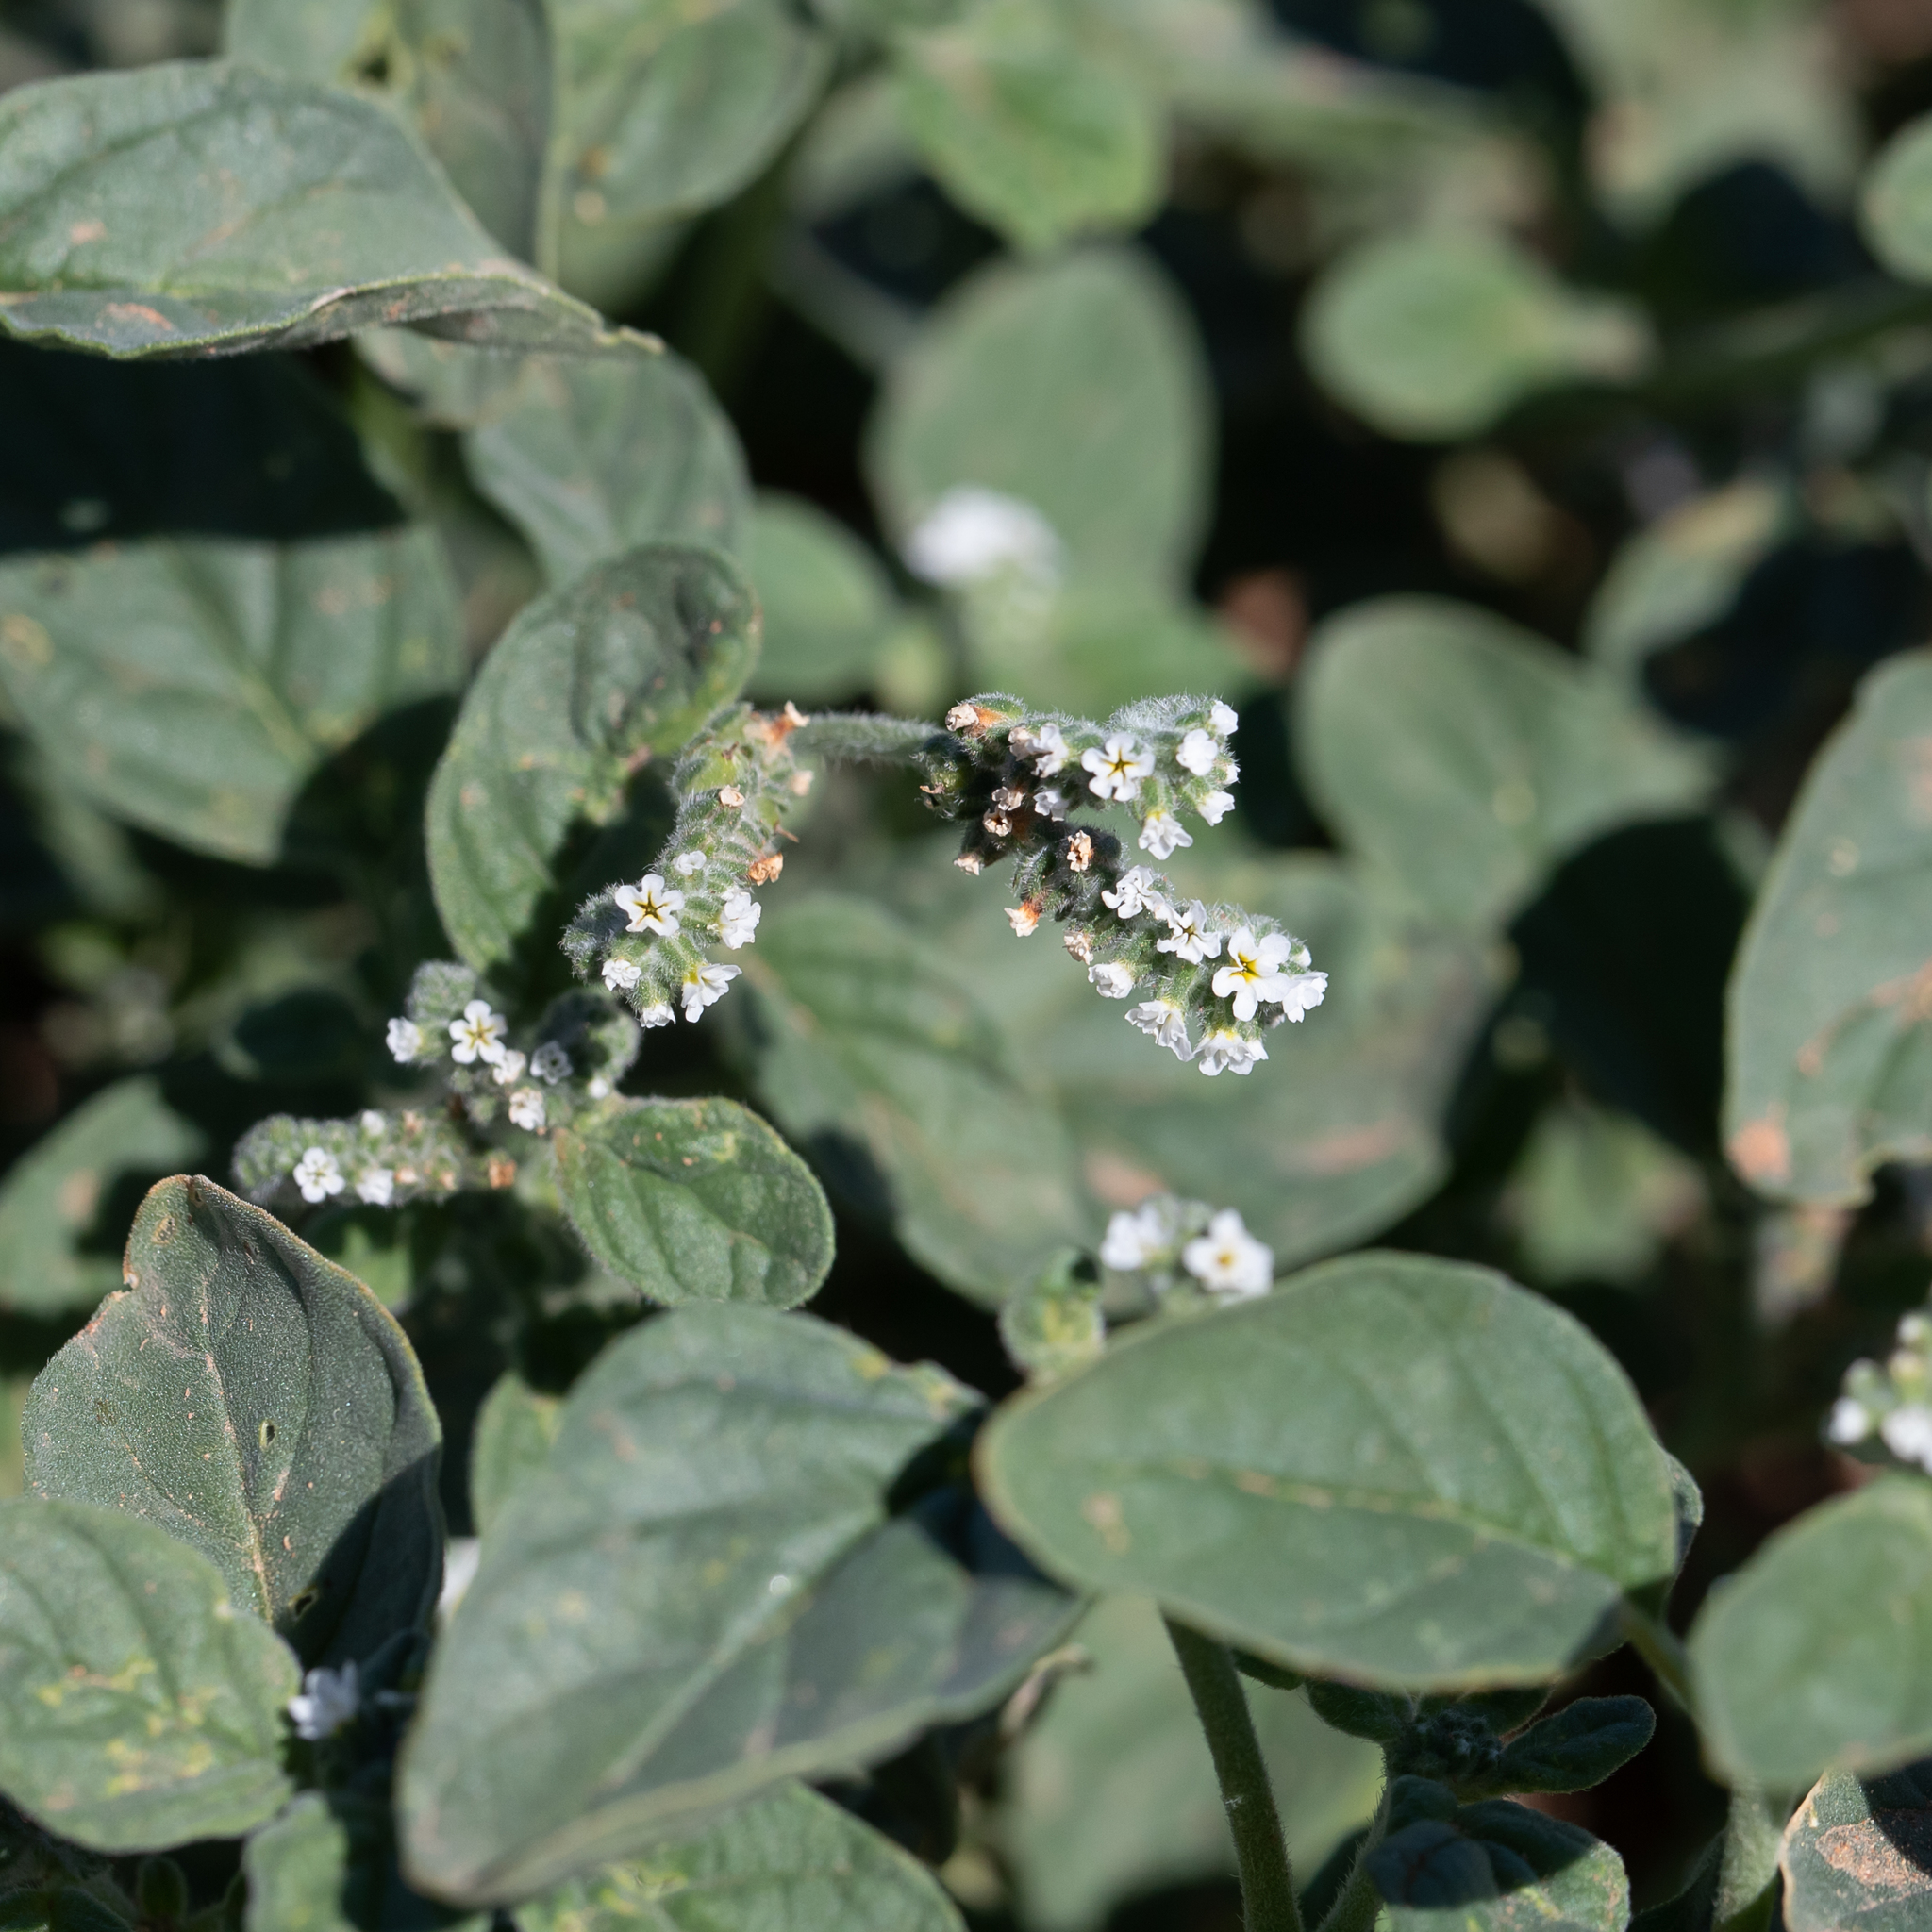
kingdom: Plantae
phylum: Tracheophyta
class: Magnoliopsida
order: Boraginales
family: Heliotropiaceae
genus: Heliotropium
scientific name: Heliotropium europaeum
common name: European heliotrope
